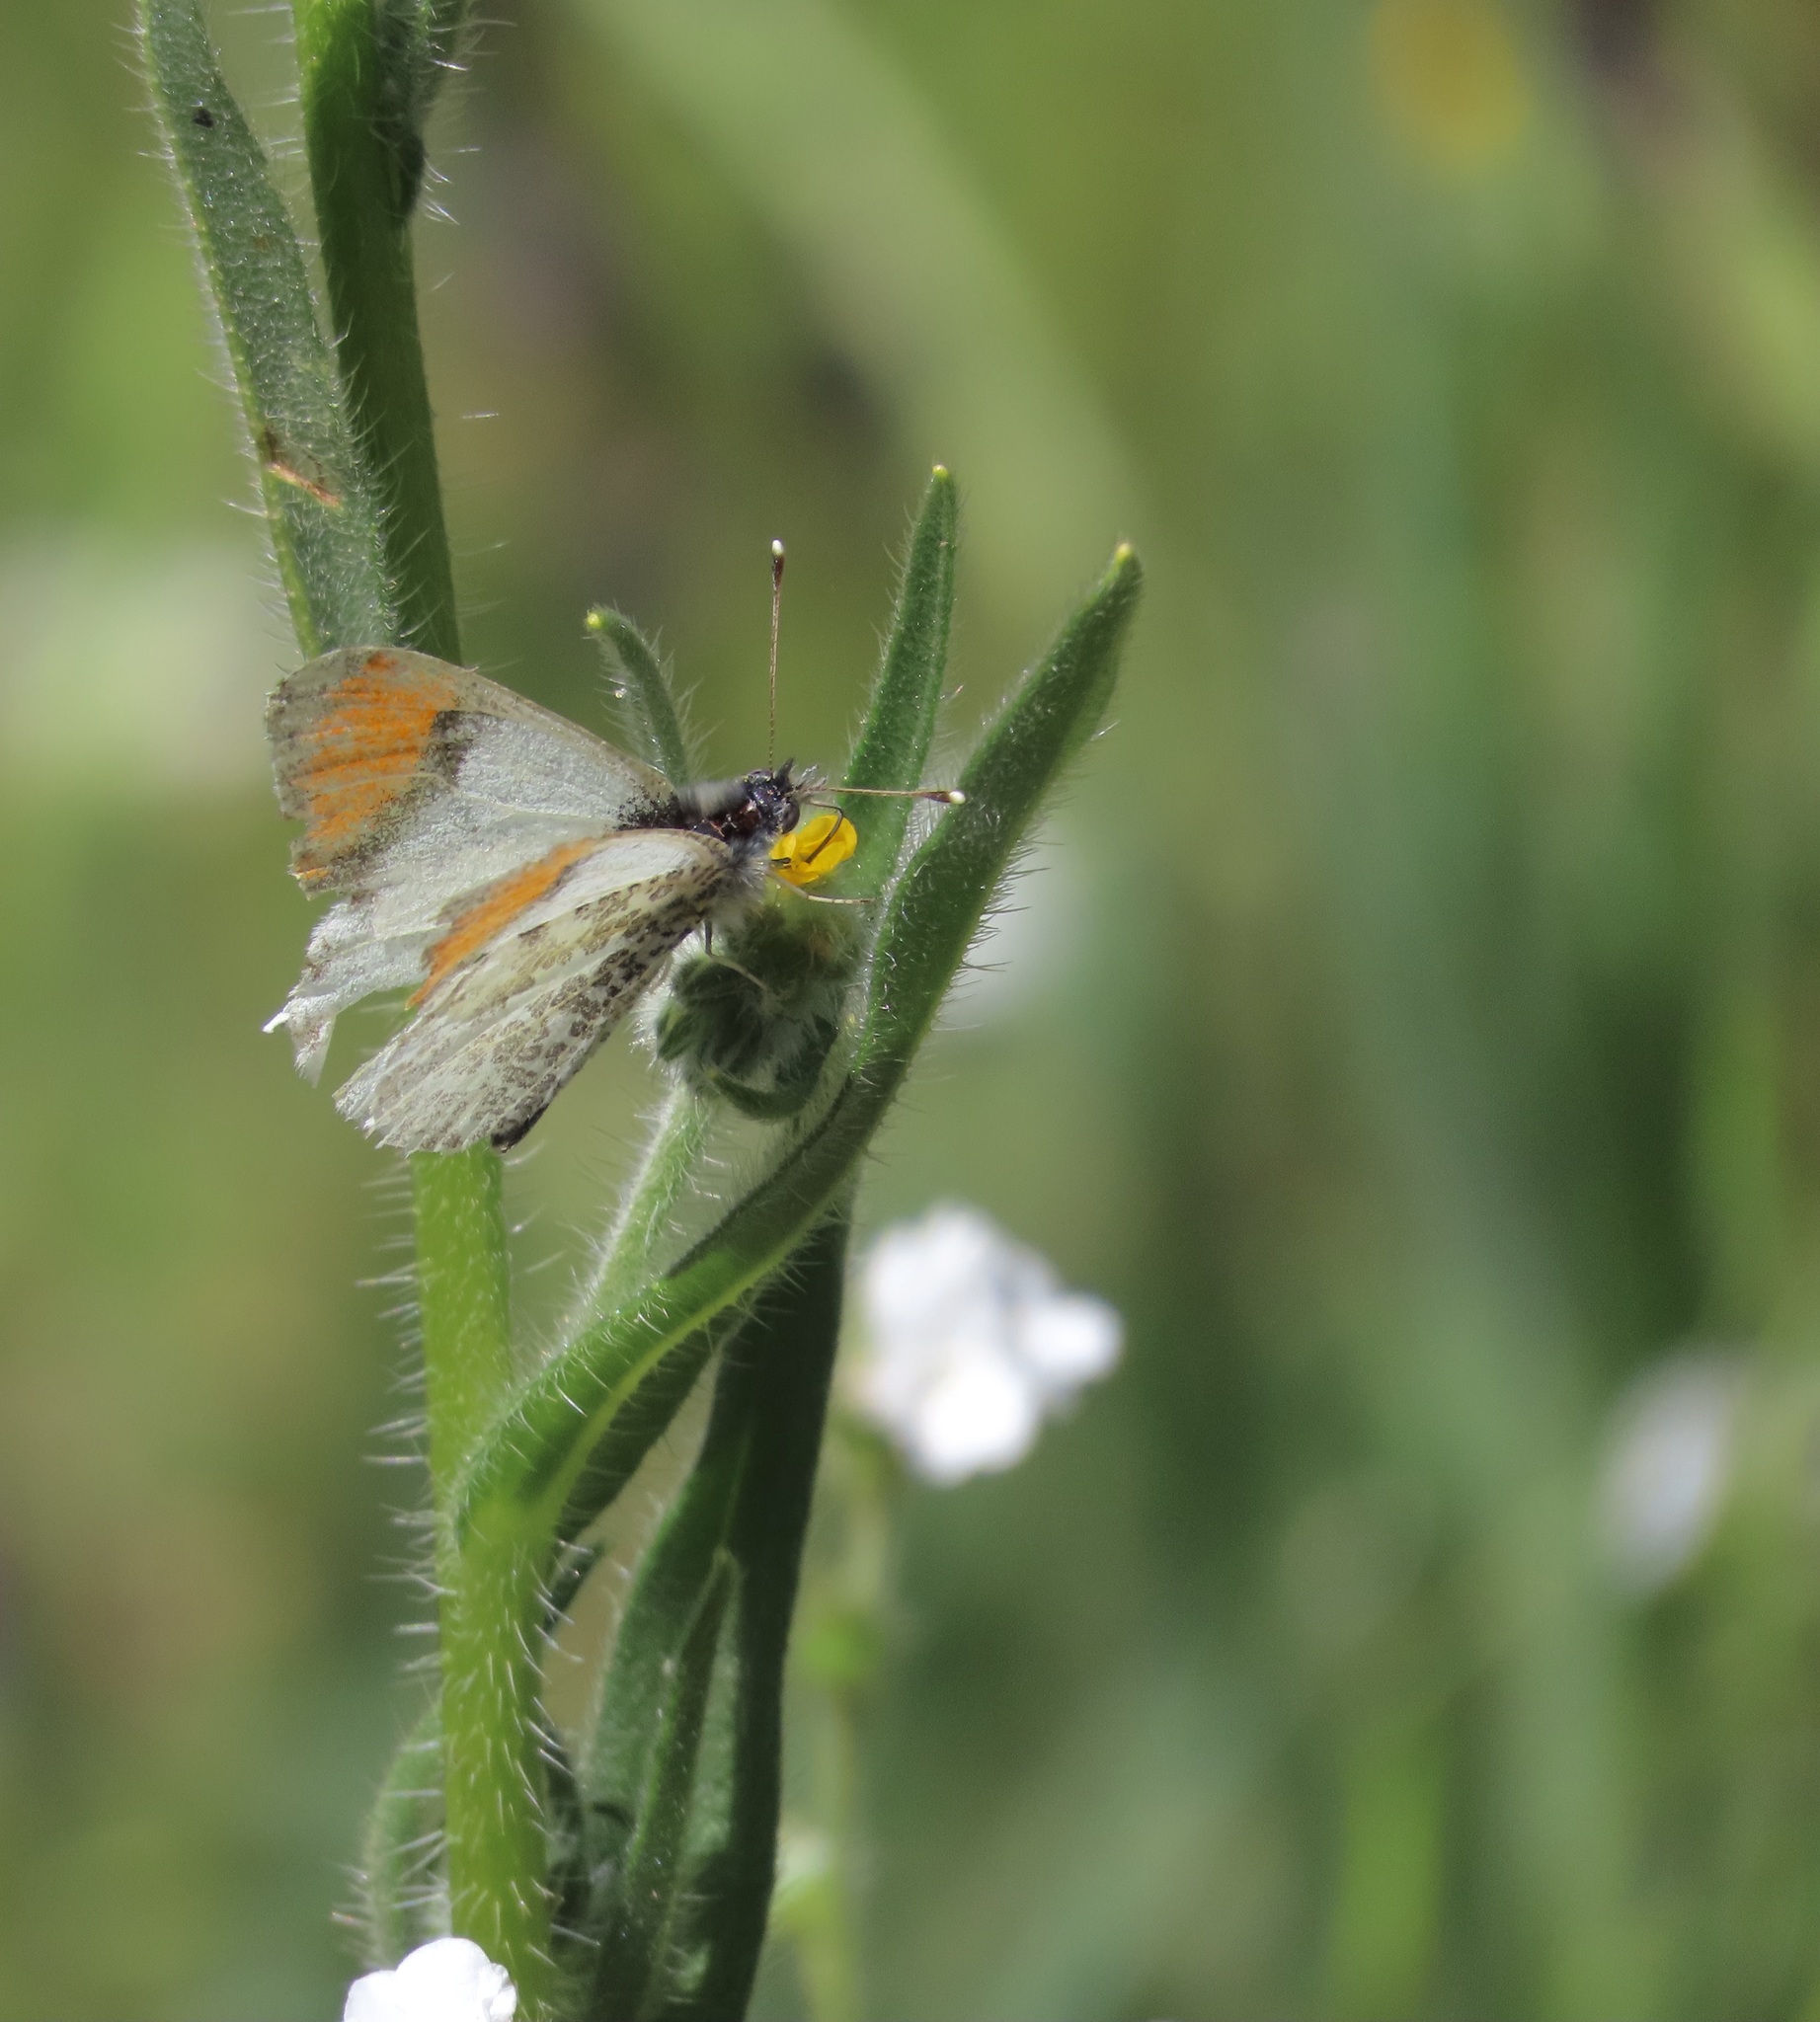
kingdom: Animalia
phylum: Arthropoda
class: Insecta
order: Lepidoptera
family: Pieridae
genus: Anthocharis
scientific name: Anthocharis sara
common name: Sara's orangetip
